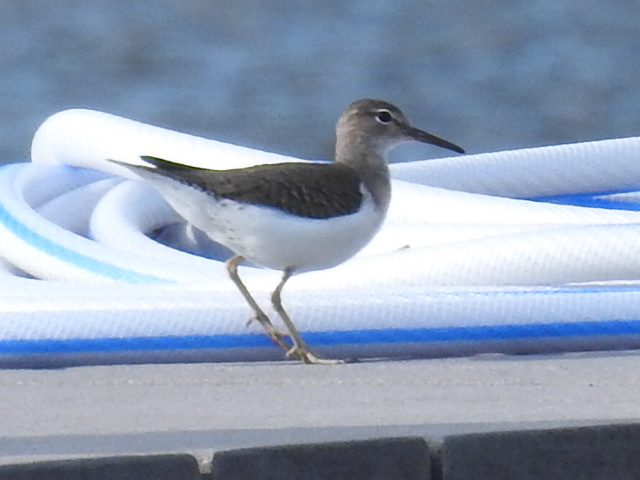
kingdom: Animalia
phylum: Chordata
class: Aves
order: Charadriiformes
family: Scolopacidae
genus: Actitis
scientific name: Actitis macularius
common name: Spotted sandpiper
